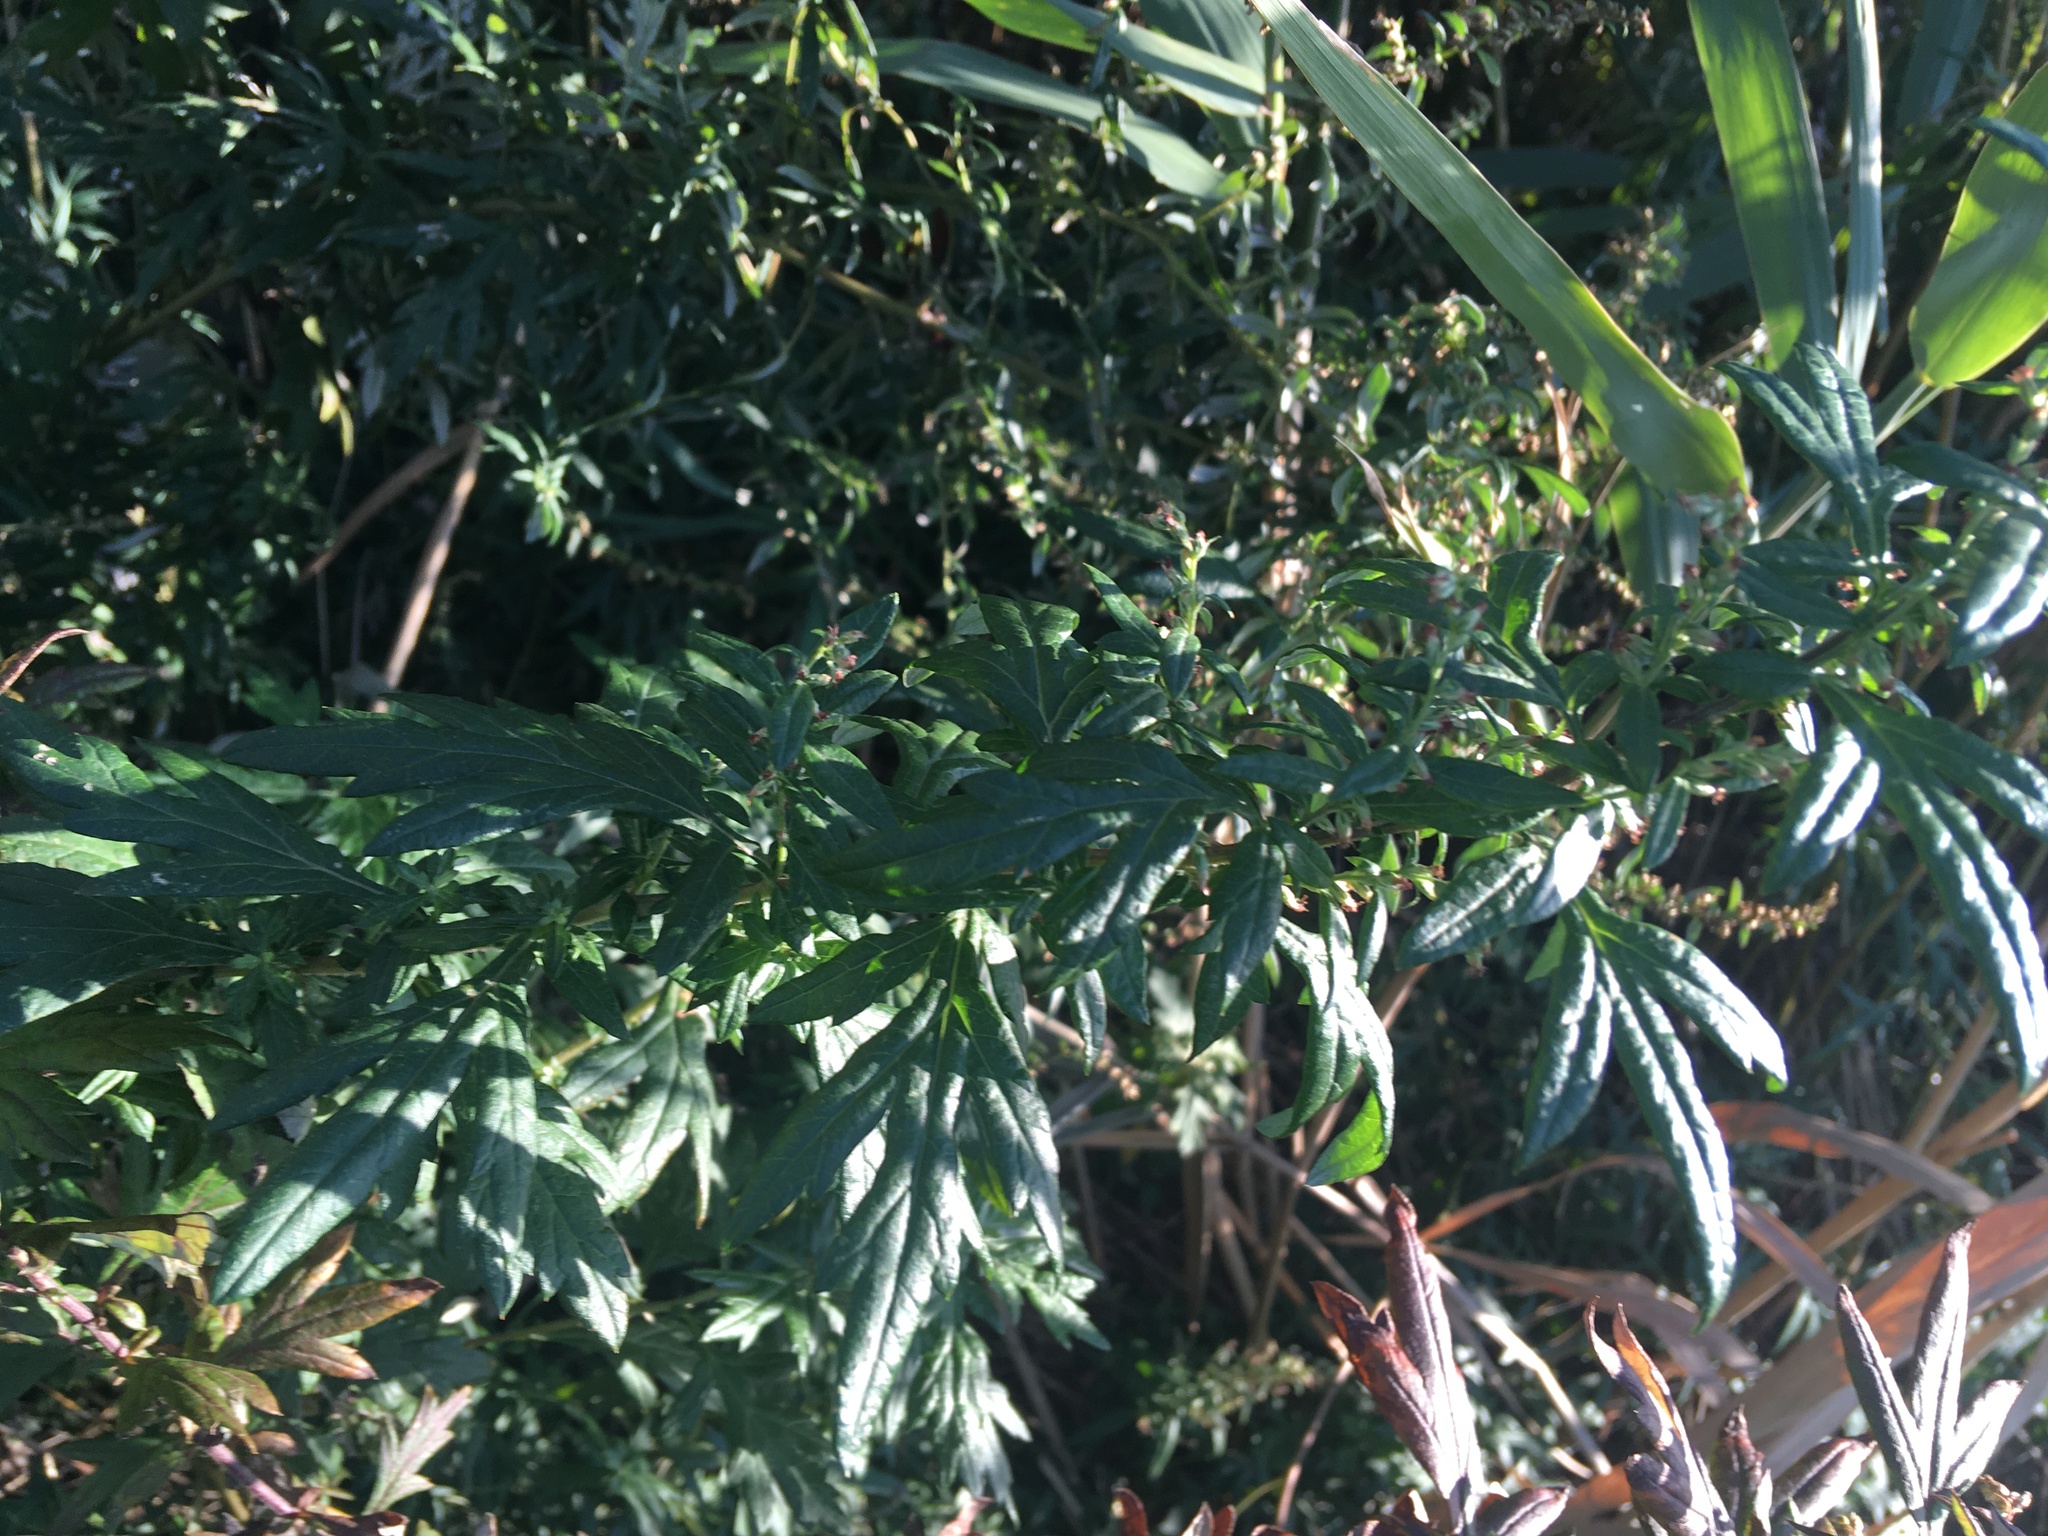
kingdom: Plantae
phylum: Tracheophyta
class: Magnoliopsida
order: Asterales
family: Asteraceae
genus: Artemisia
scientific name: Artemisia vulgaris
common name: Mugwort
